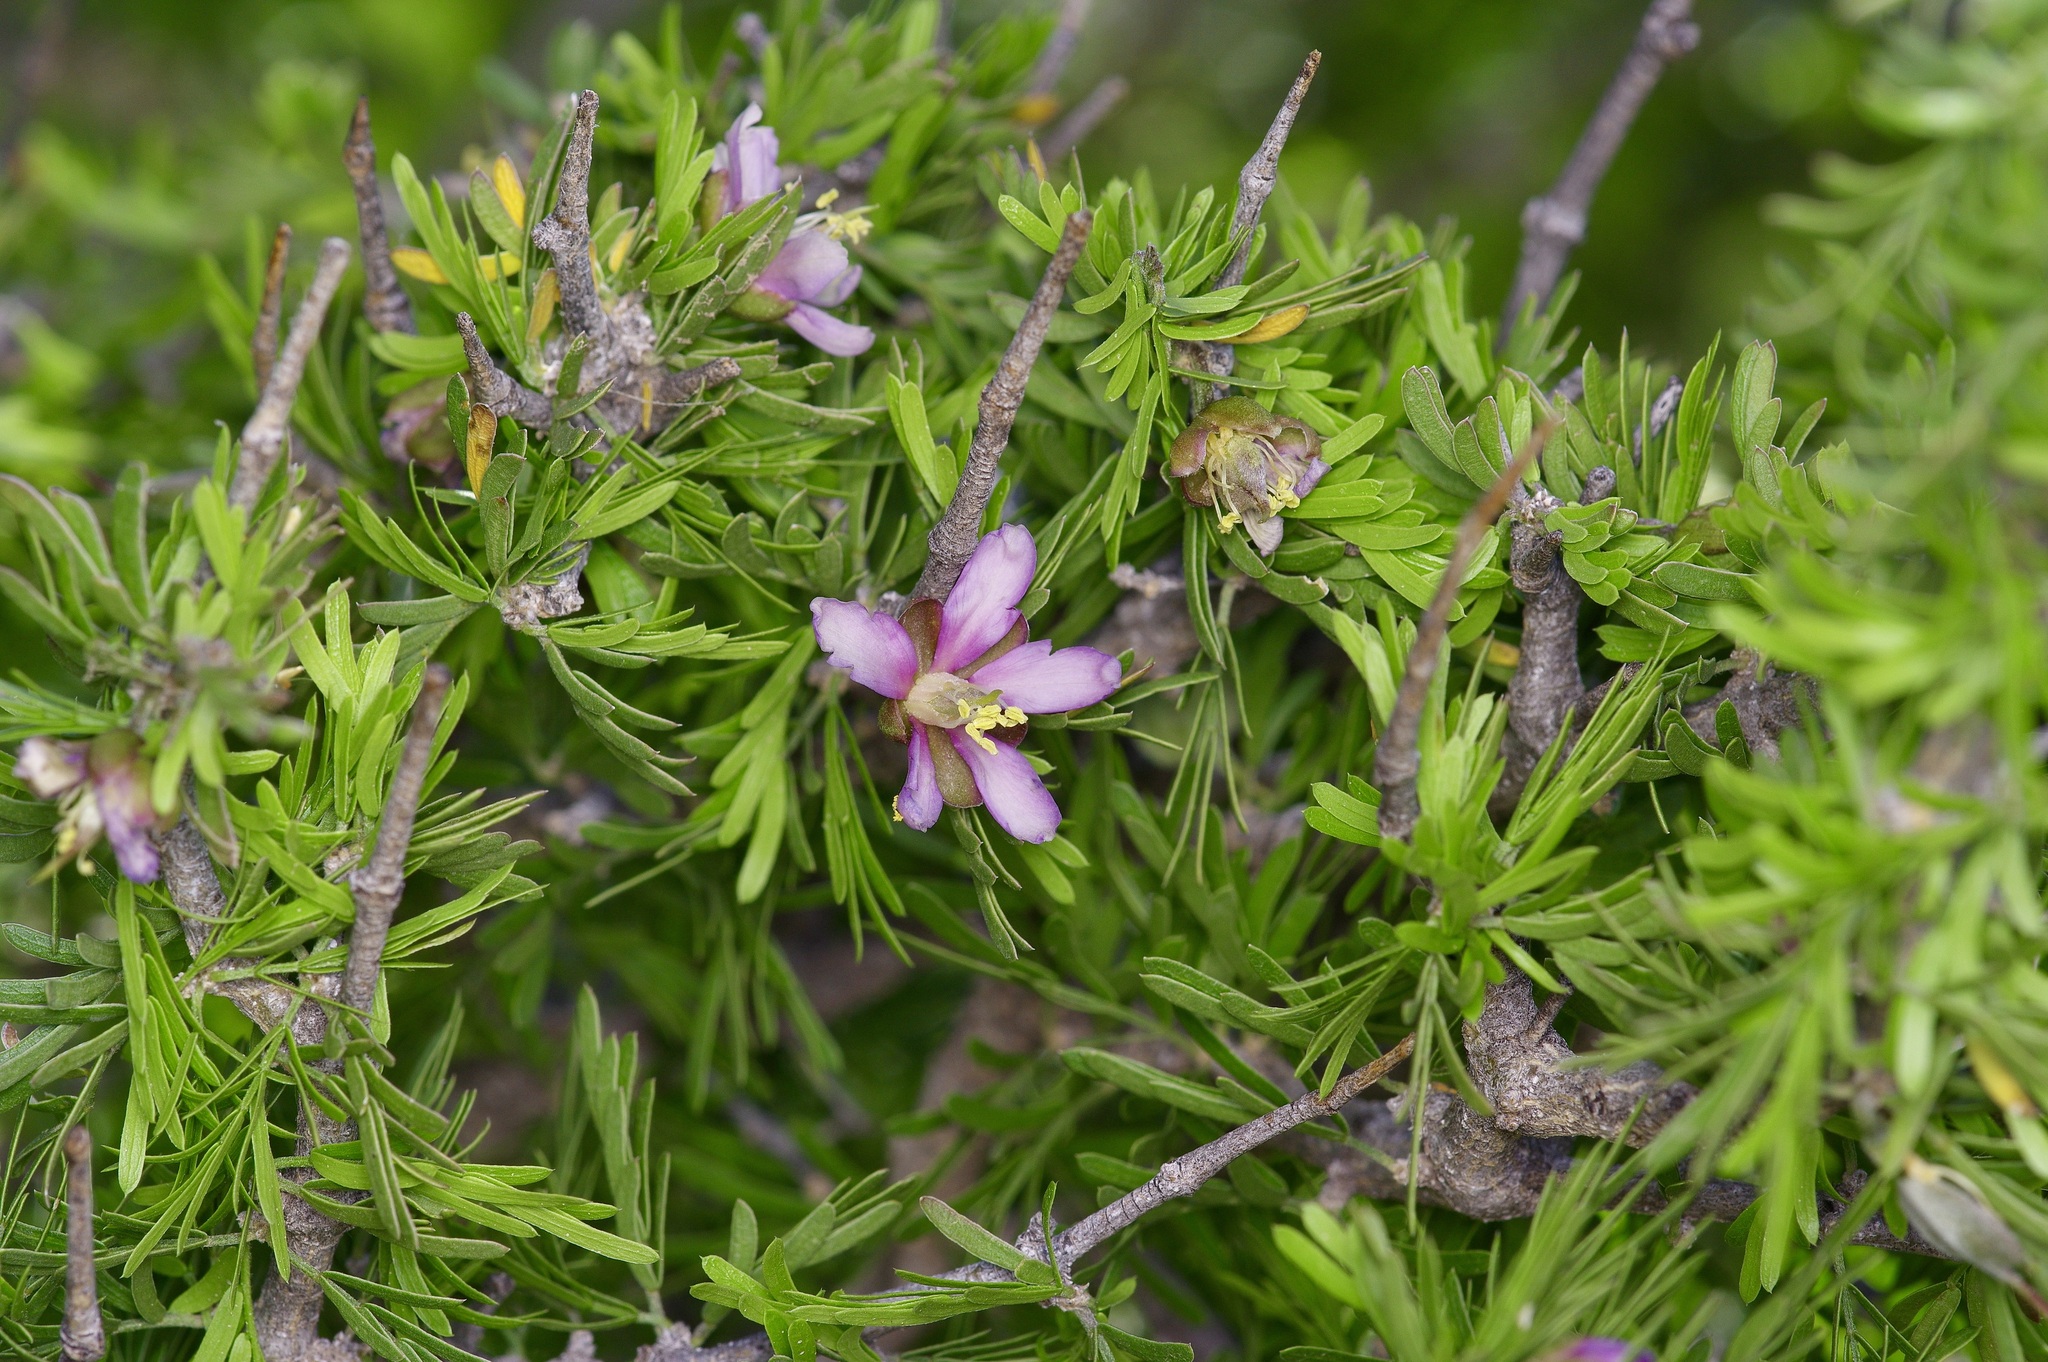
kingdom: Plantae
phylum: Tracheophyta
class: Magnoliopsida
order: Zygophyllales
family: Zygophyllaceae
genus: Porlieria
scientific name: Porlieria angustifolia
